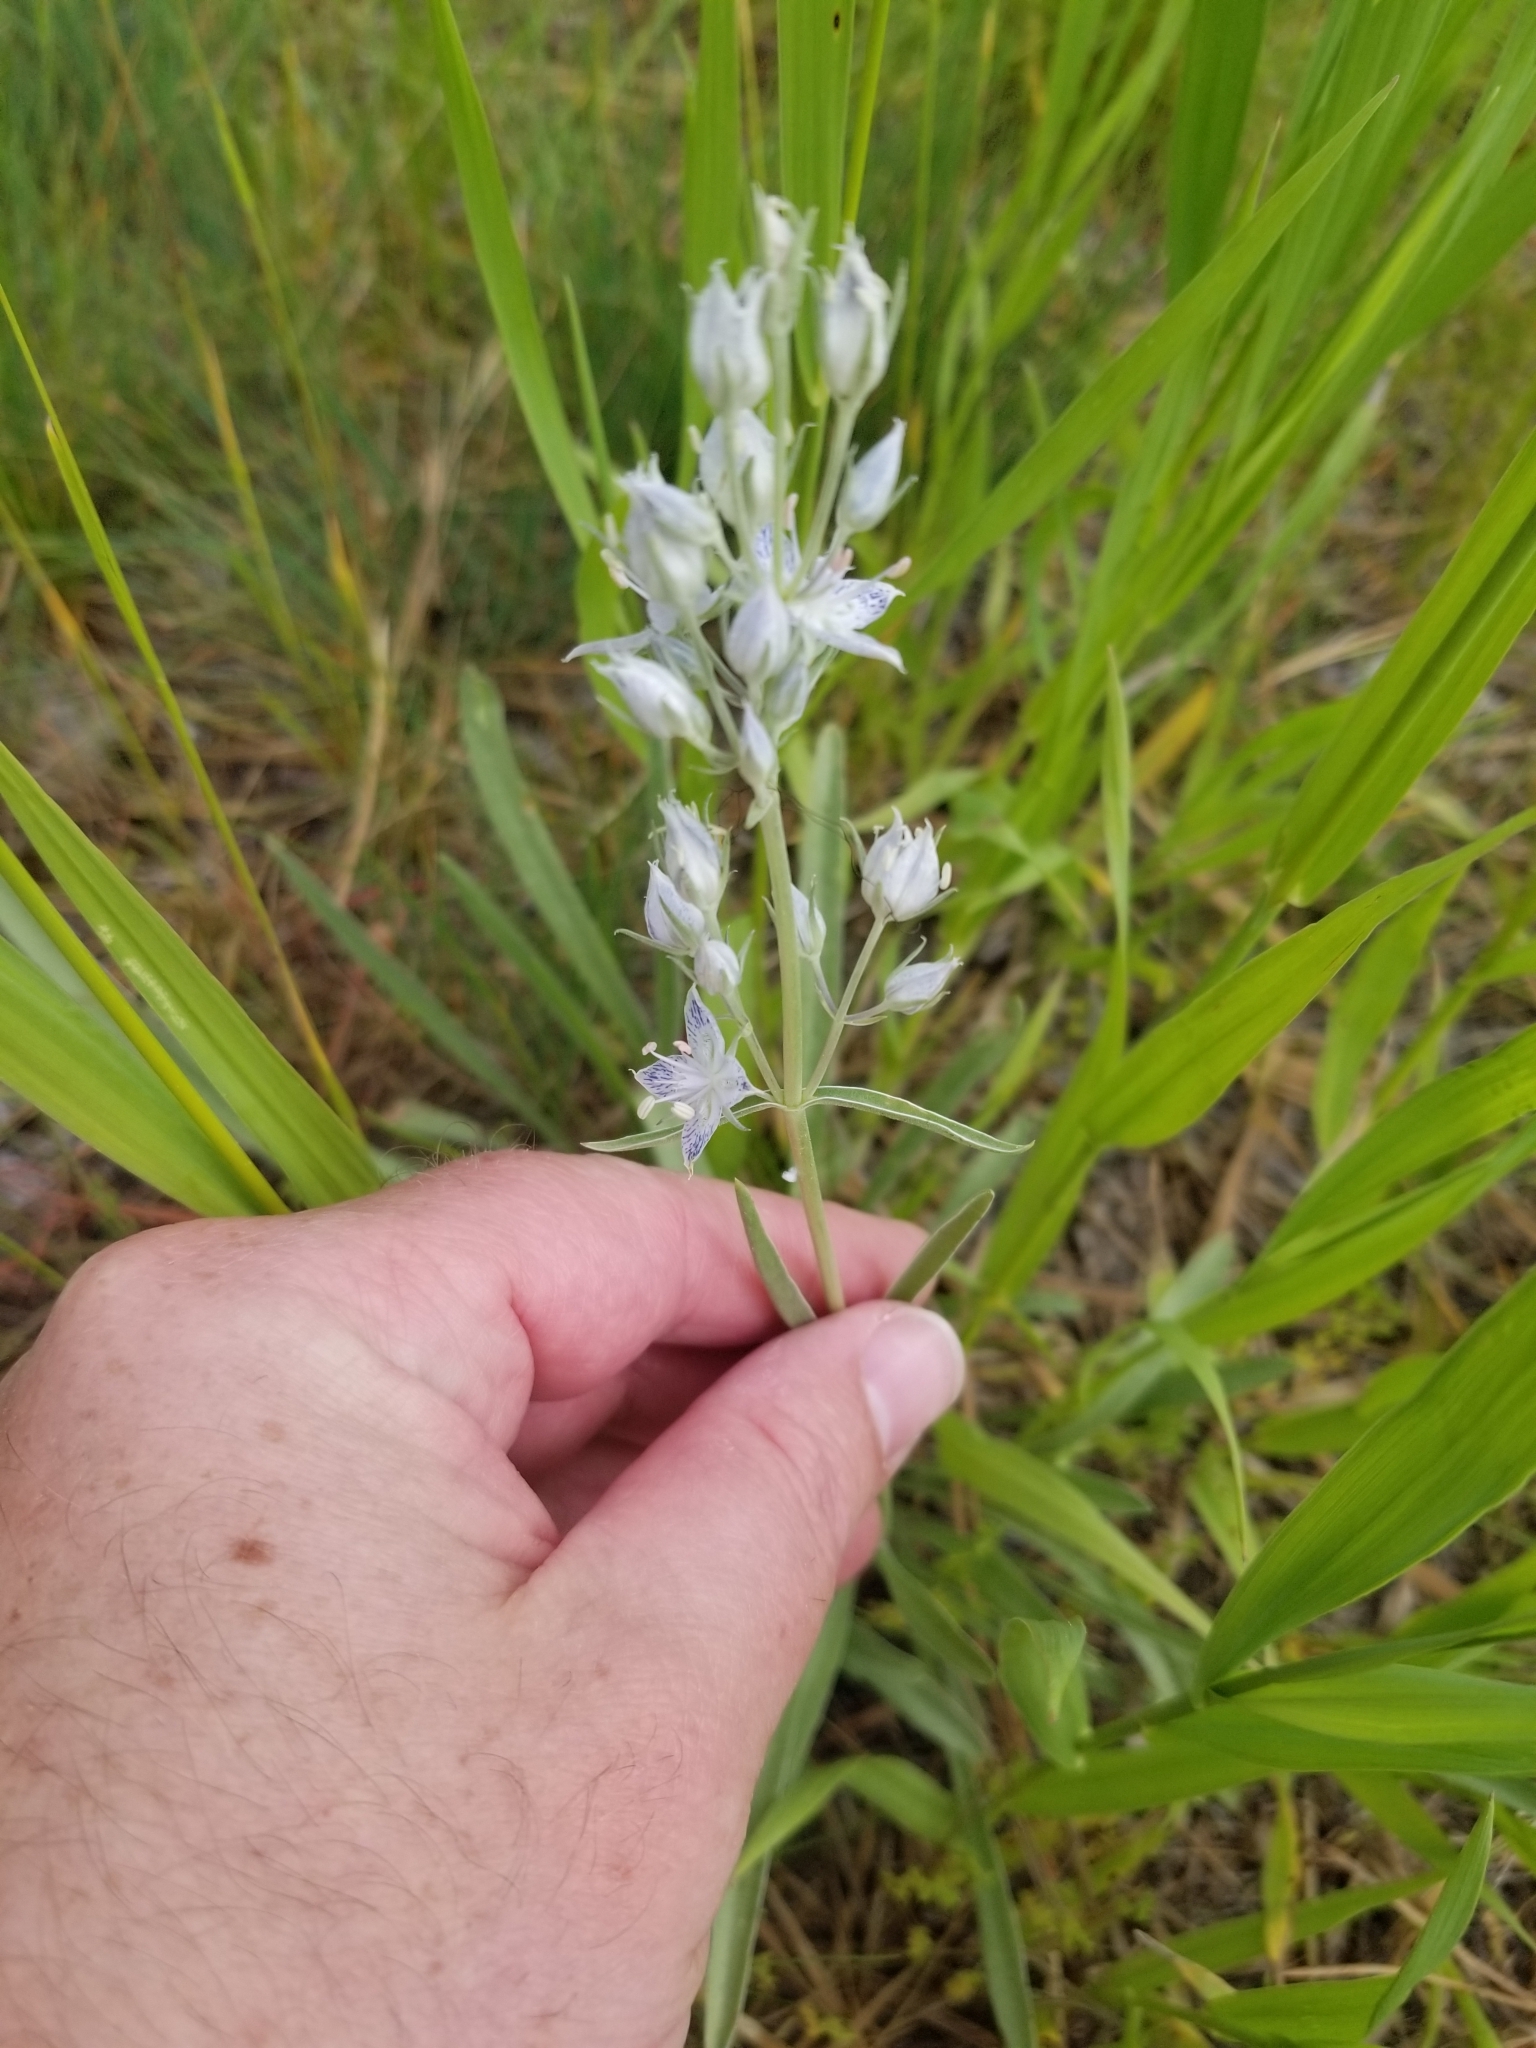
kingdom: Plantae
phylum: Tracheophyta
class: Magnoliopsida
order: Gentianales
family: Gentianaceae
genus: Frasera
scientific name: Frasera albicaulis
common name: Cusick's frasera
